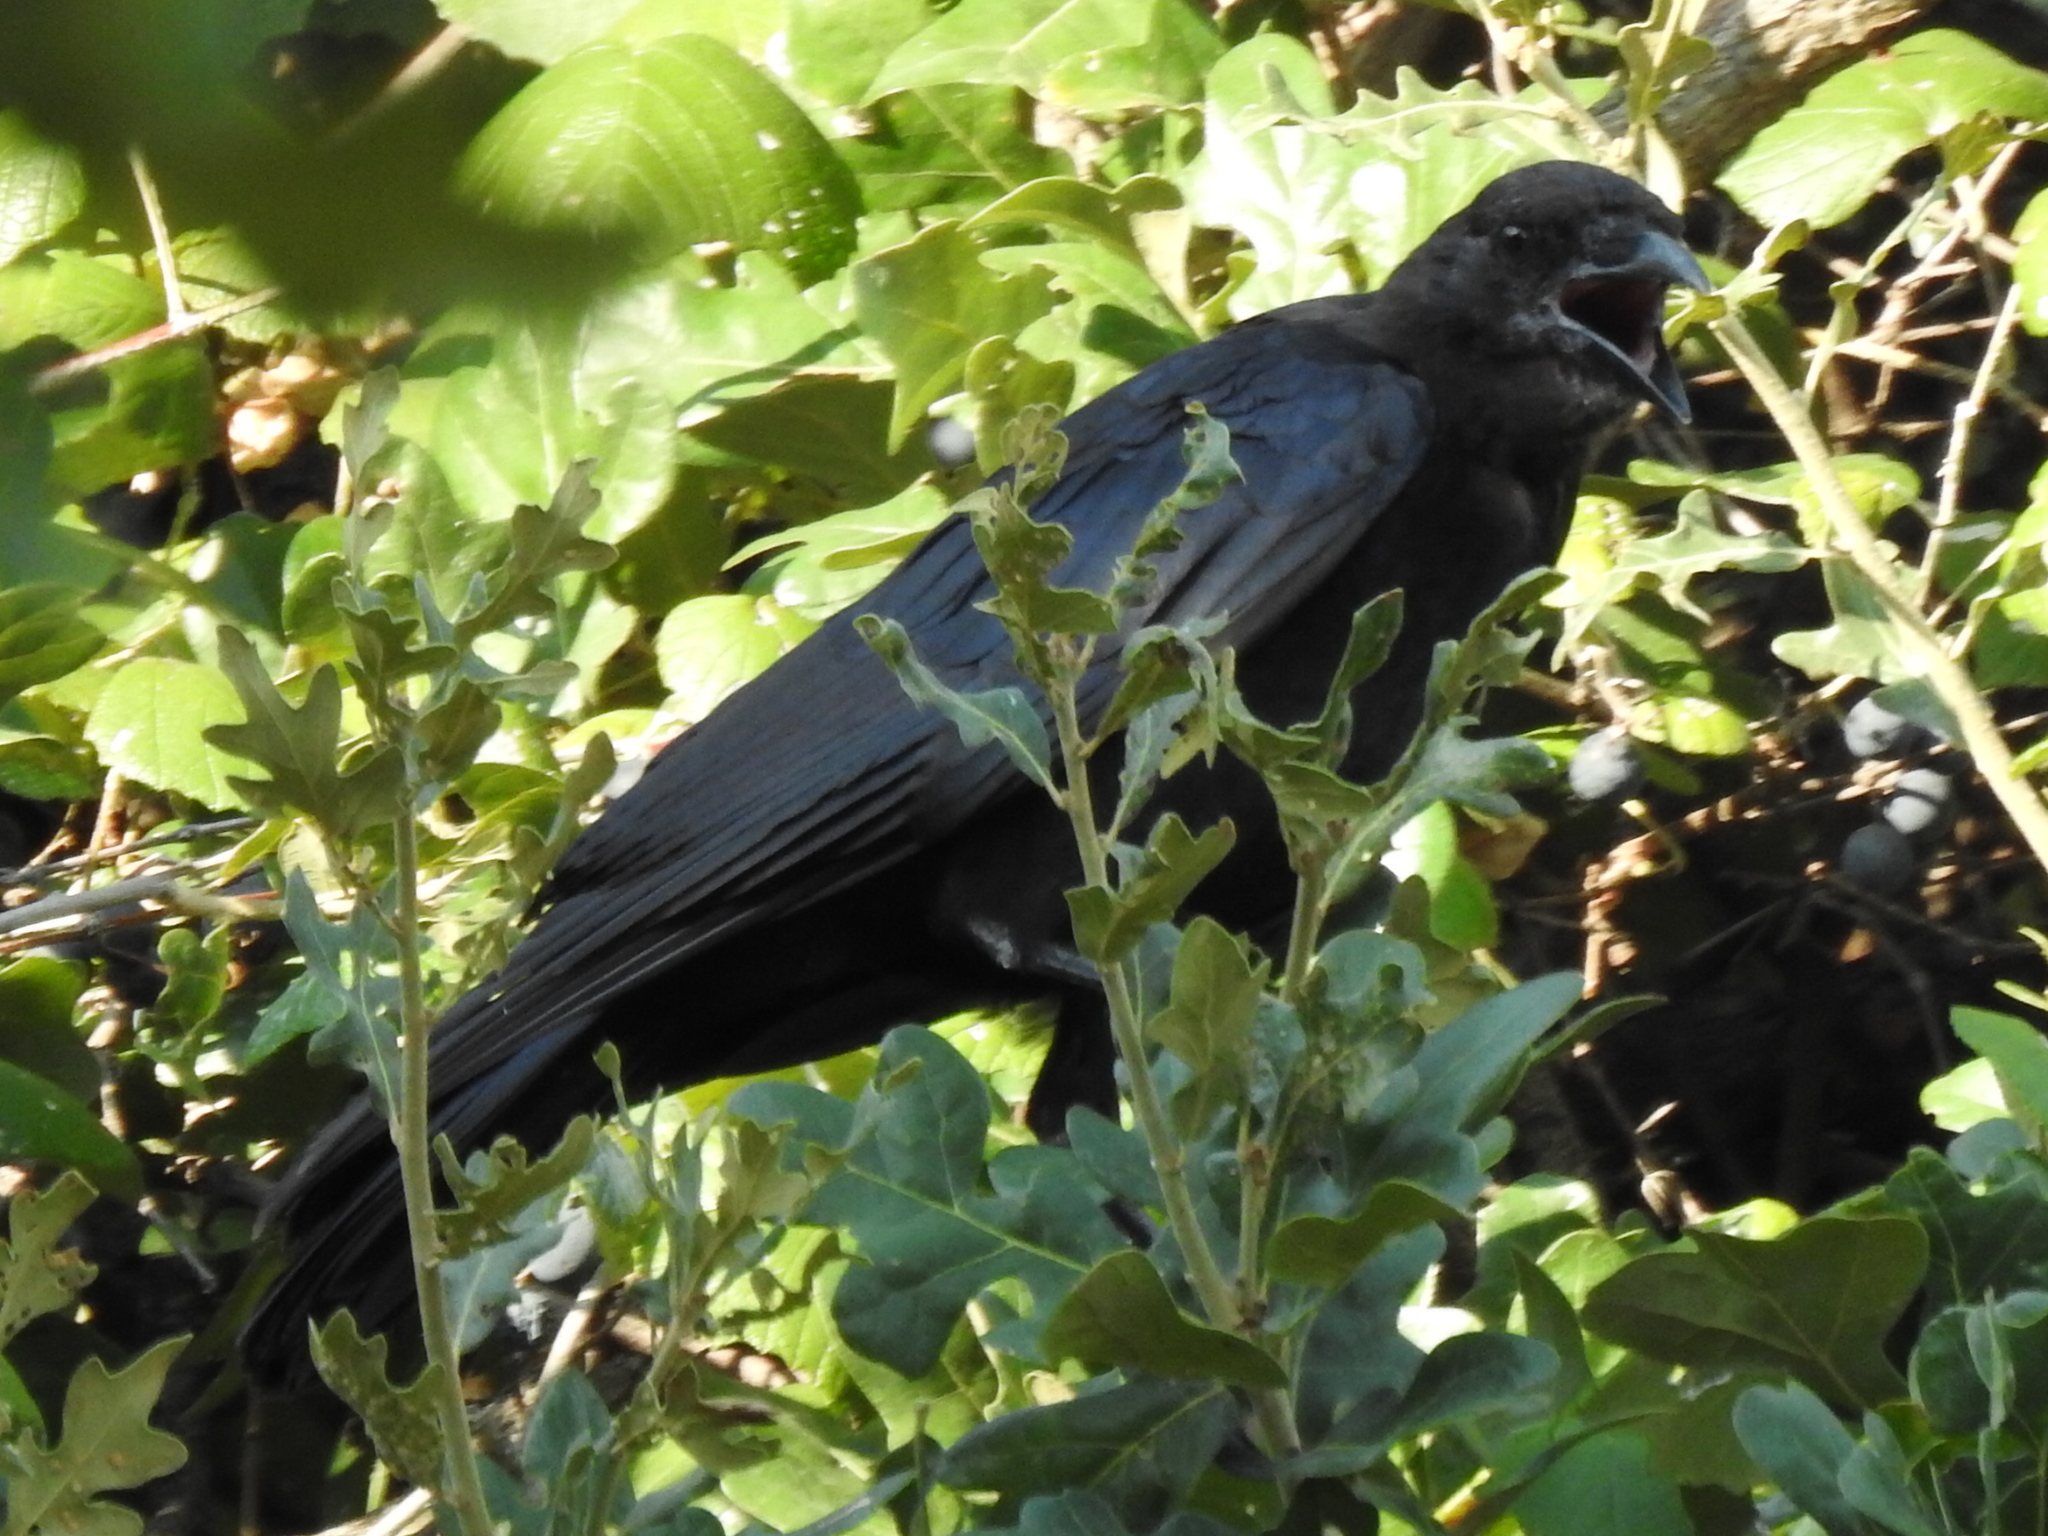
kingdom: Animalia
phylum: Chordata
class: Aves
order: Passeriformes
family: Corvidae
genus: Corvus
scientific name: Corvus brachyrhynchos
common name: American crow
